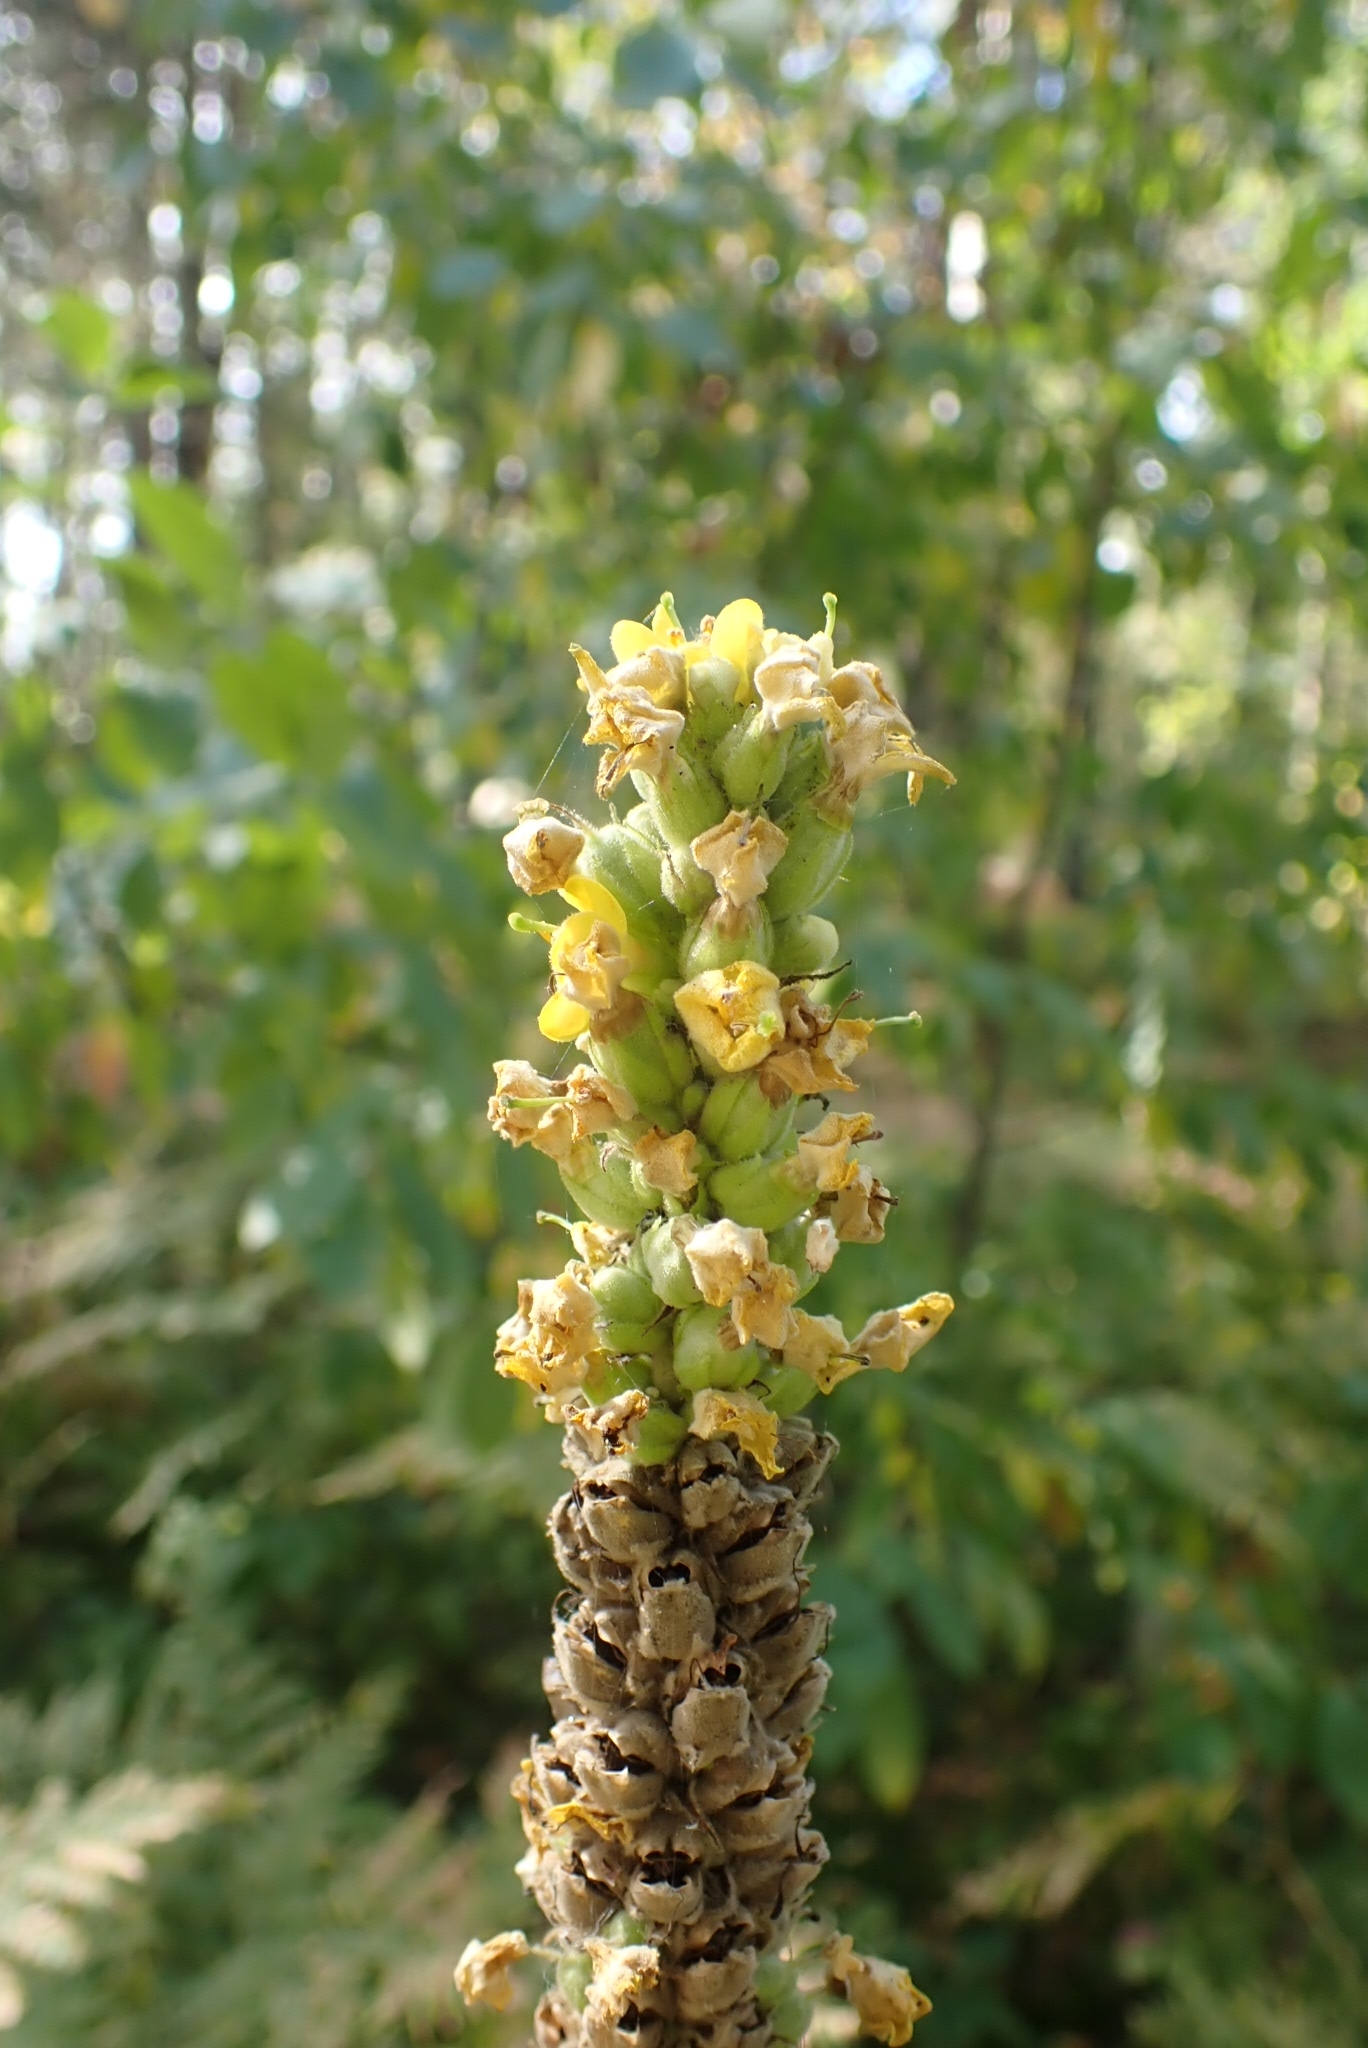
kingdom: Plantae
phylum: Tracheophyta
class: Magnoliopsida
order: Lamiales
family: Scrophulariaceae
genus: Verbascum
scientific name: Verbascum thapsus
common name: Common mullein
